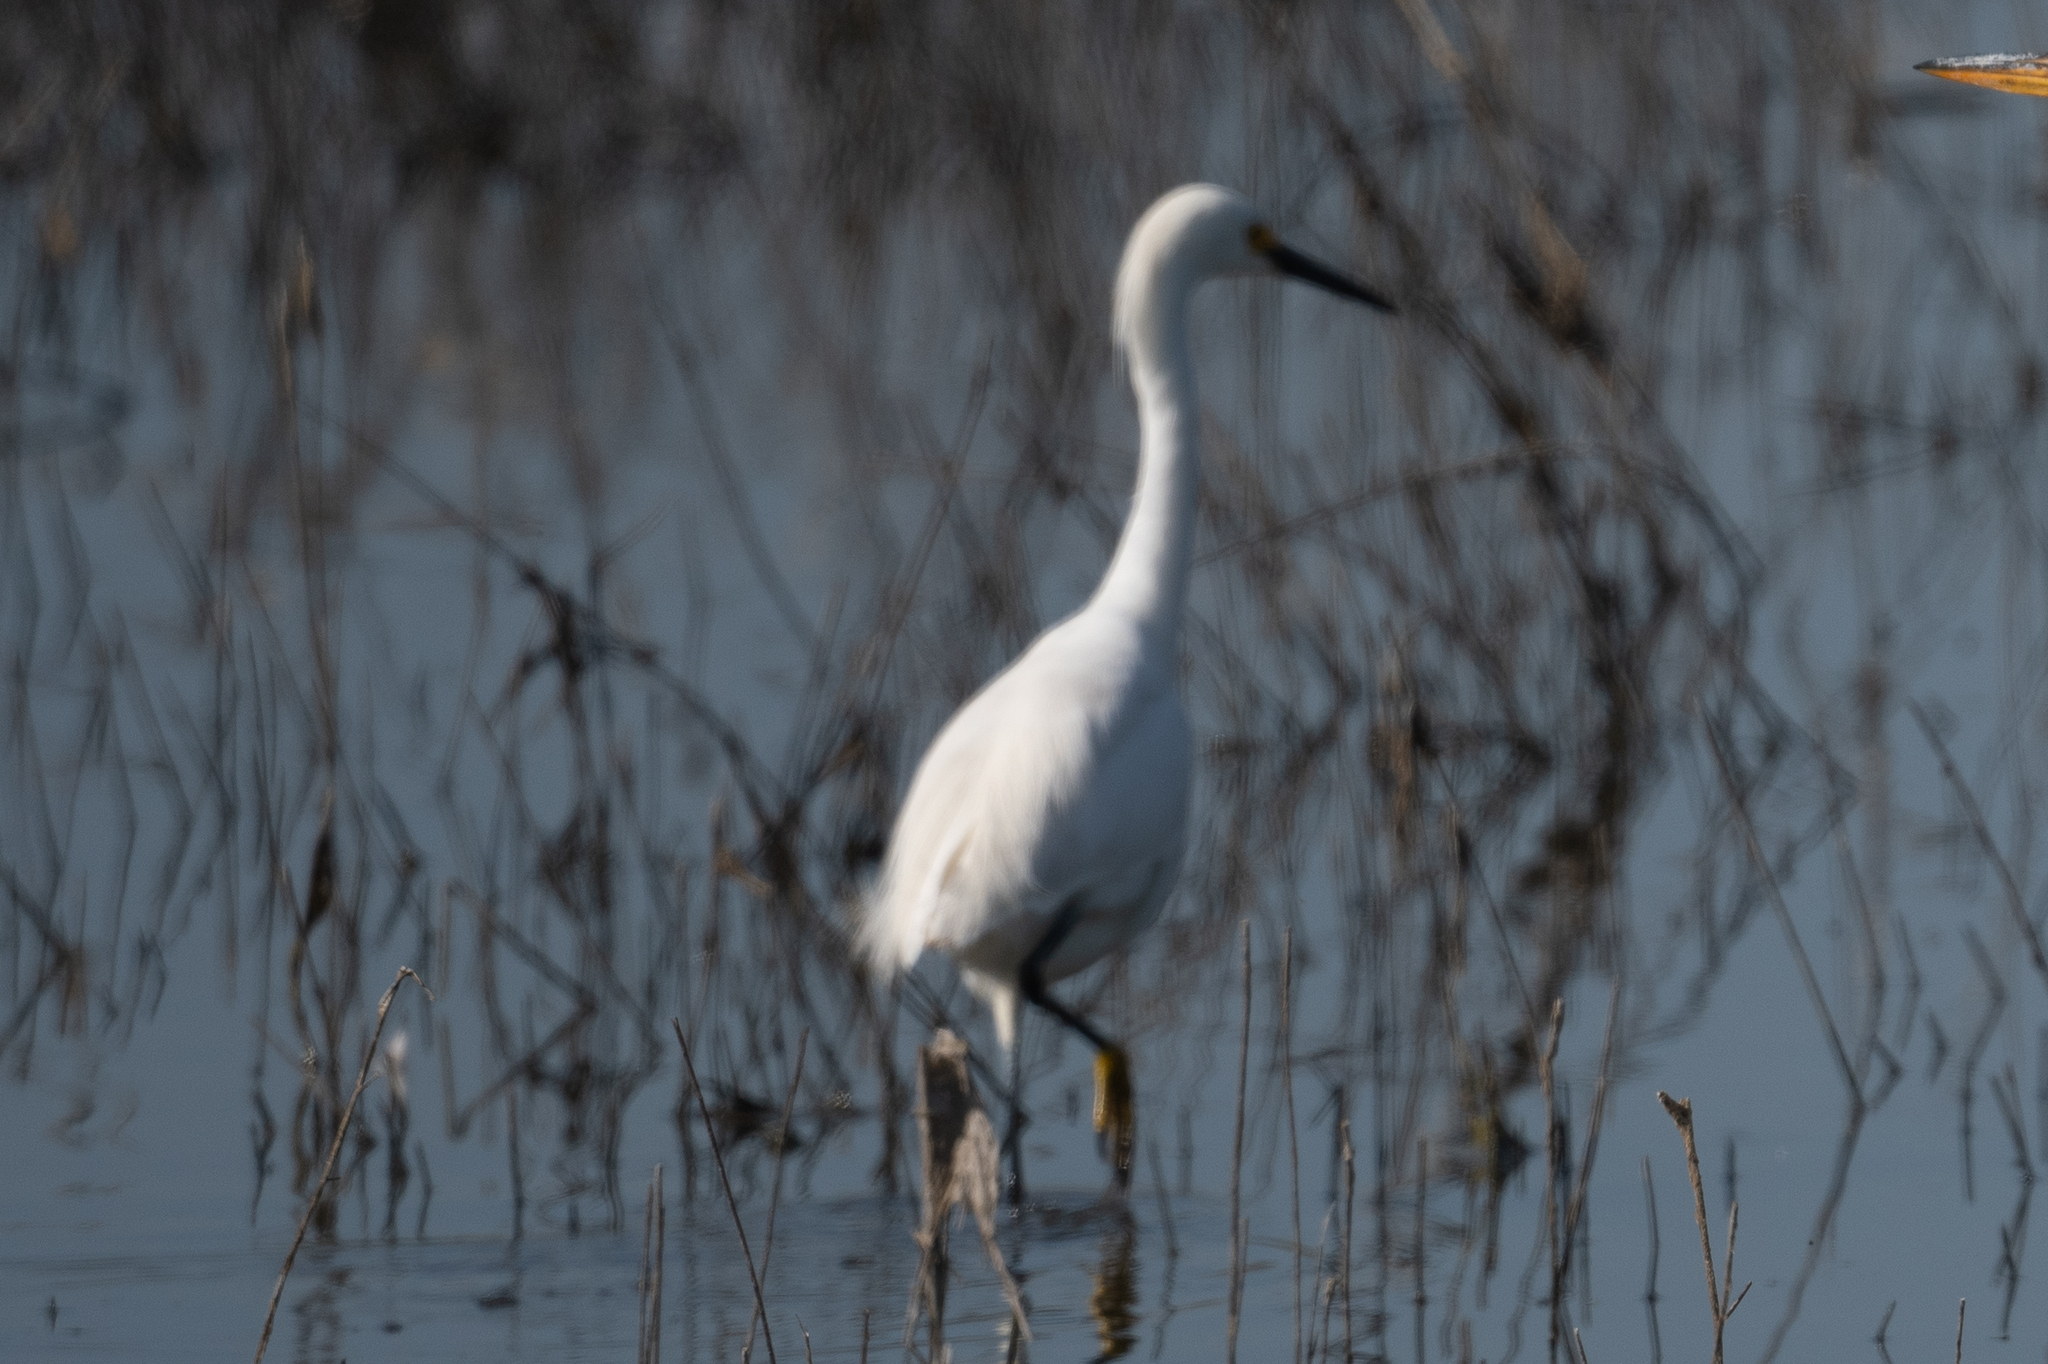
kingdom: Animalia
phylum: Chordata
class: Aves
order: Pelecaniformes
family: Ardeidae
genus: Egretta
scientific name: Egretta thula
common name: Snowy egret
